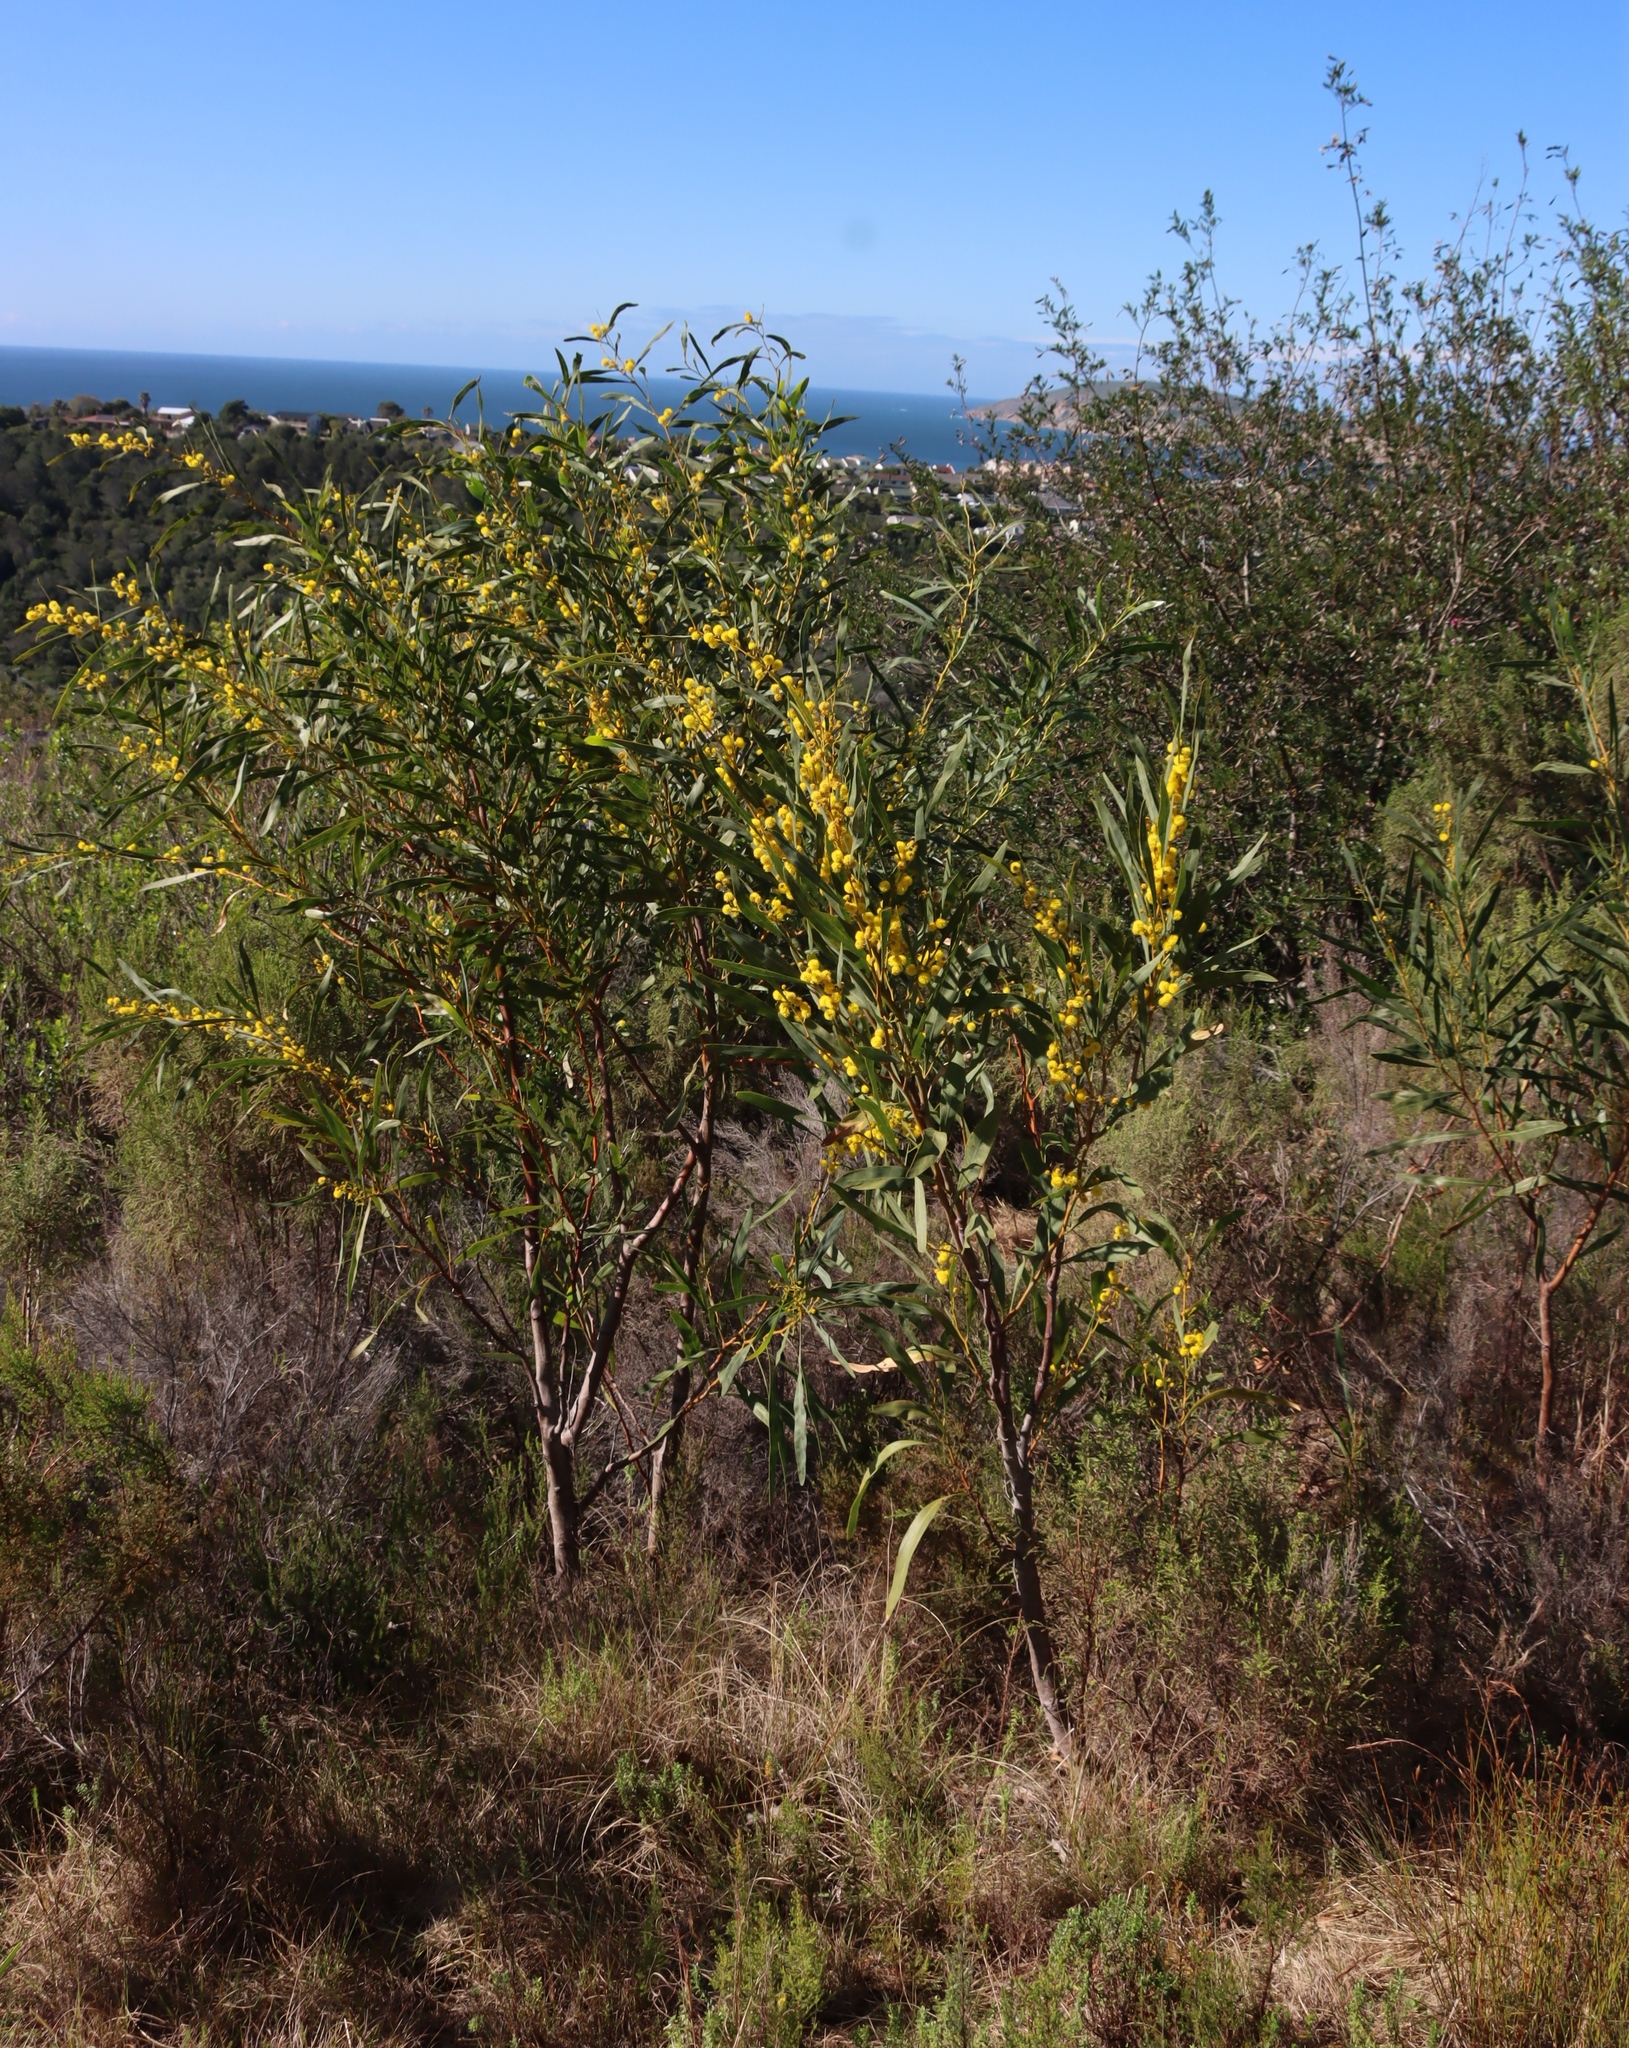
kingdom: Plantae
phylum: Tracheophyta
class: Magnoliopsida
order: Fabales
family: Fabaceae
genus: Acacia
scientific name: Acacia saligna
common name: Orange wattle
